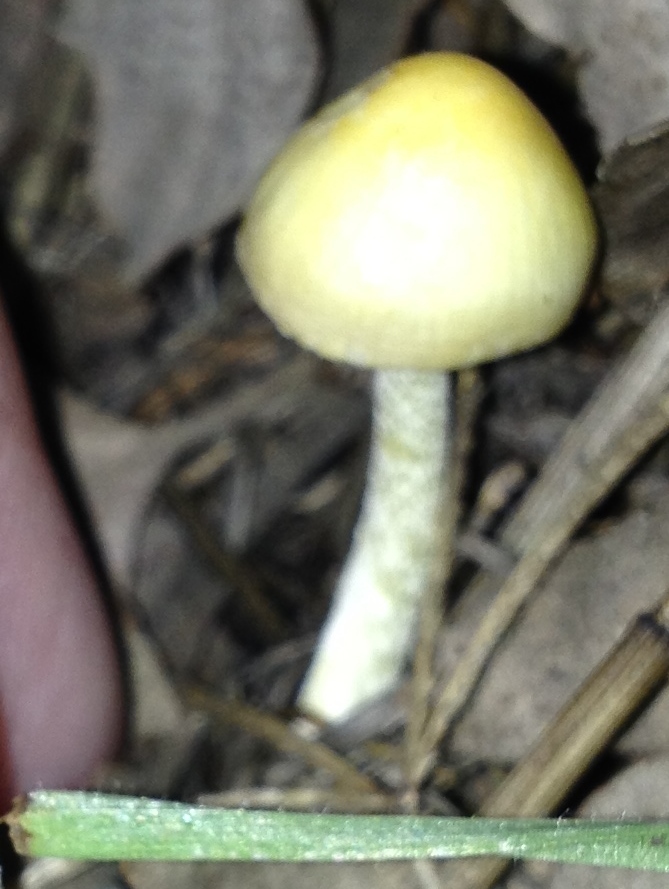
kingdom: Fungi
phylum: Basidiomycota
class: Agaricomycetes
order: Agaricales
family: Bolbitiaceae
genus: Bolbitius
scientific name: Bolbitius titubans
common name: Yellow fieldcap
